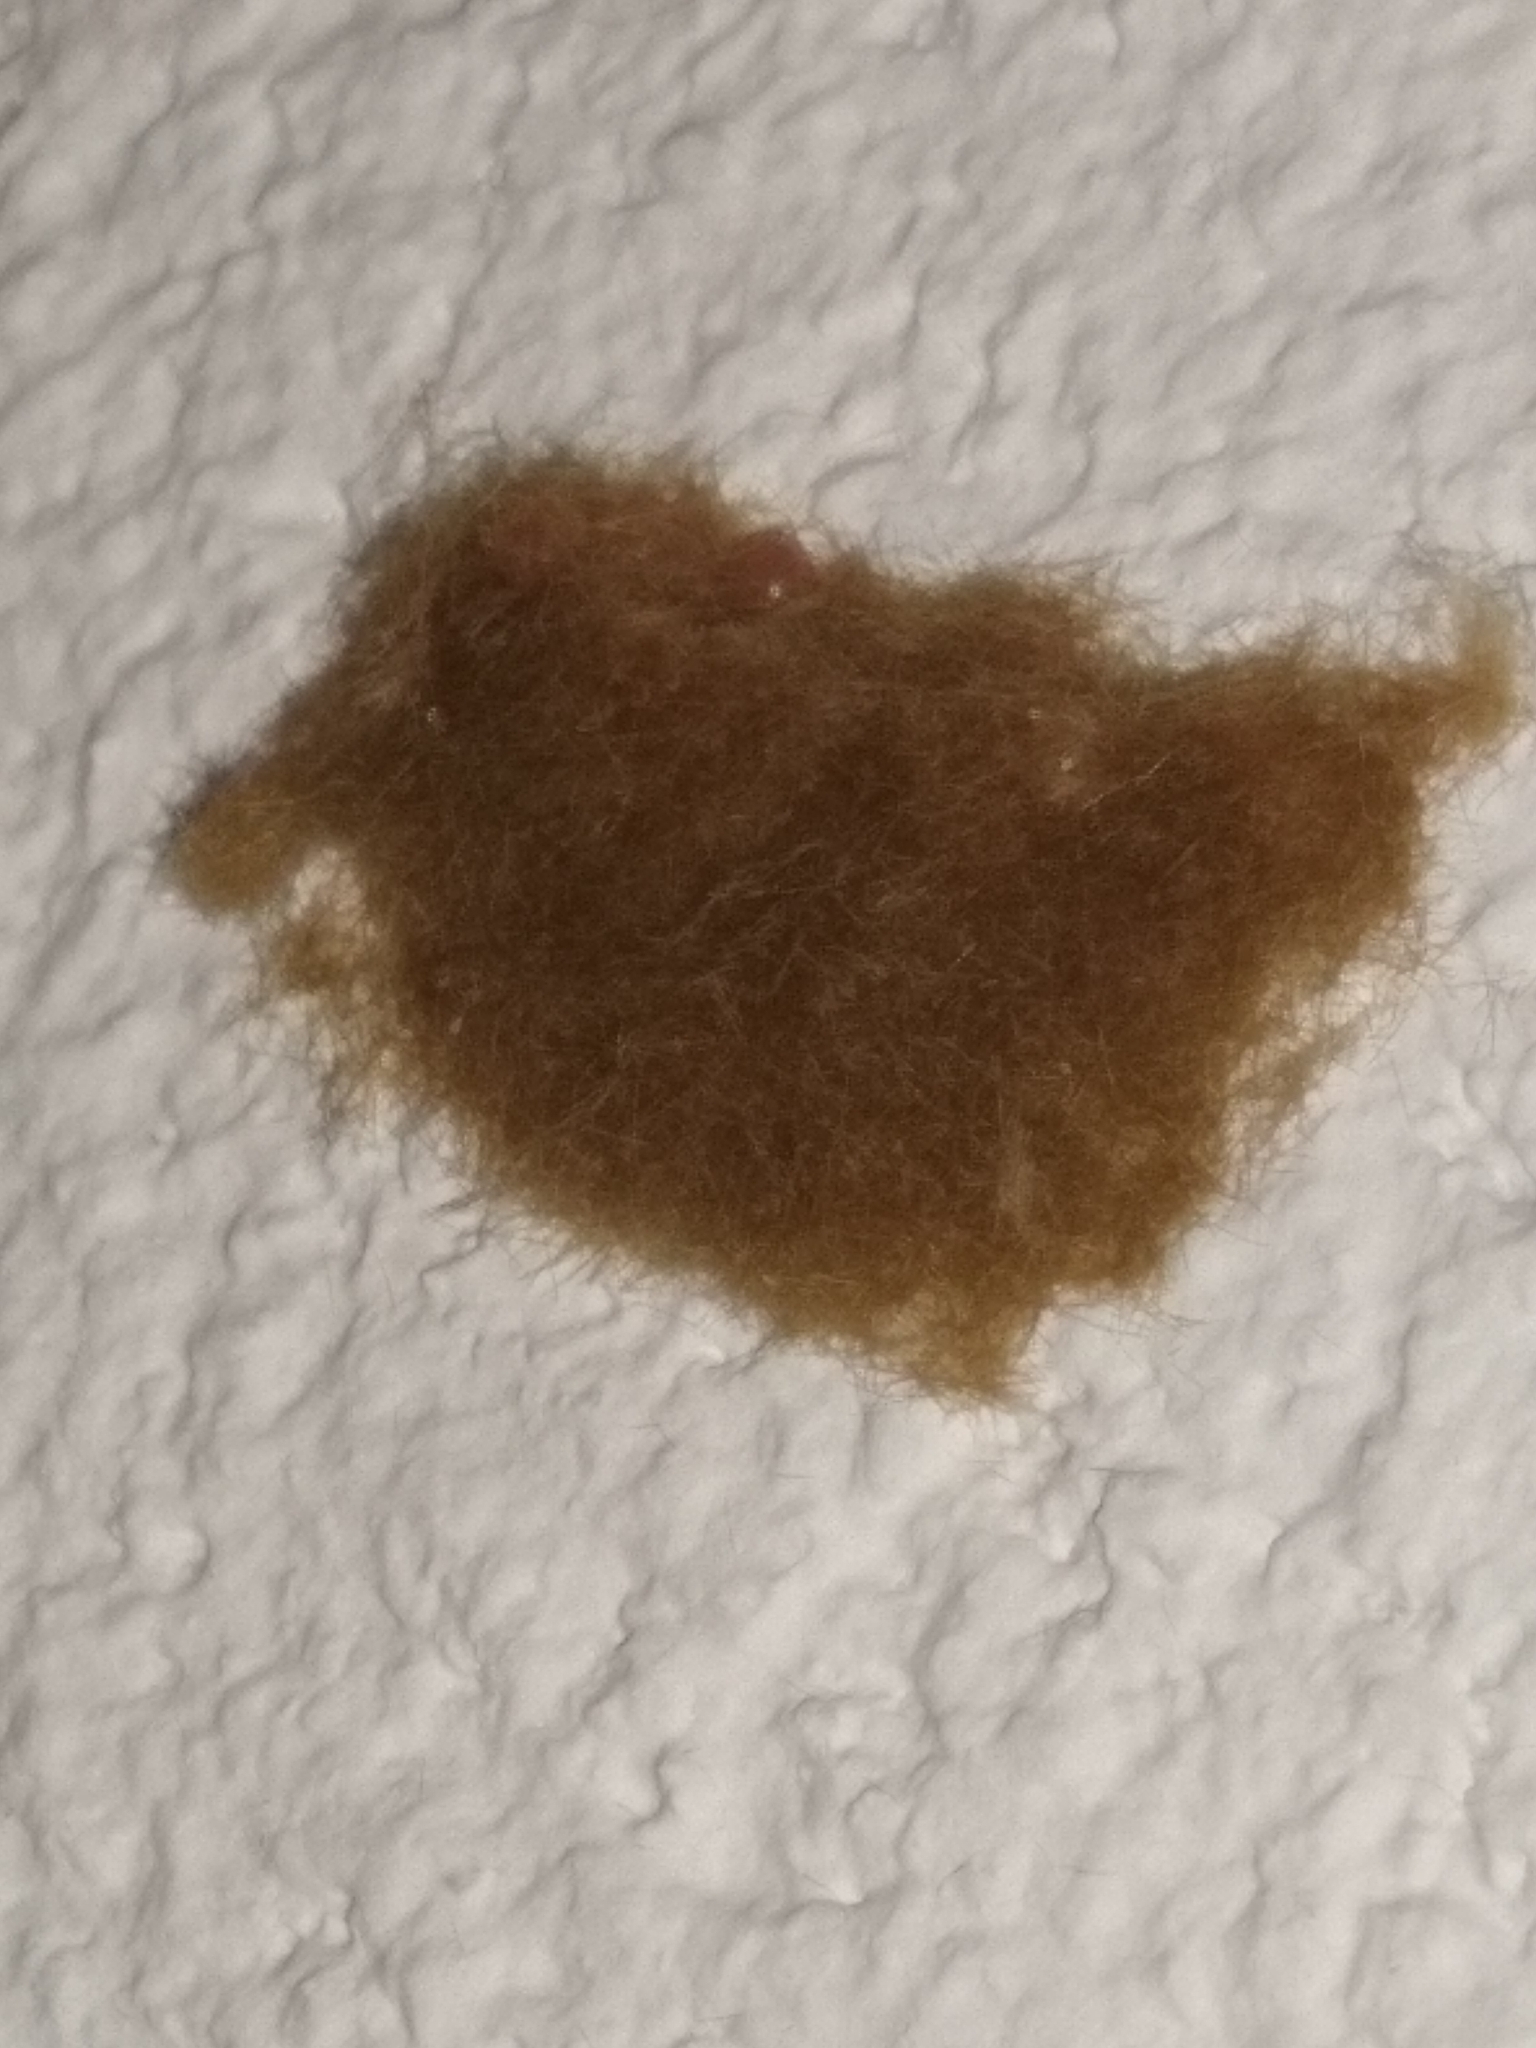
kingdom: Animalia
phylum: Arthropoda
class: Insecta
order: Lepidoptera
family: Erebidae
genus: Lymantria
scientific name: Lymantria dispar
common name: Gypsy moth
